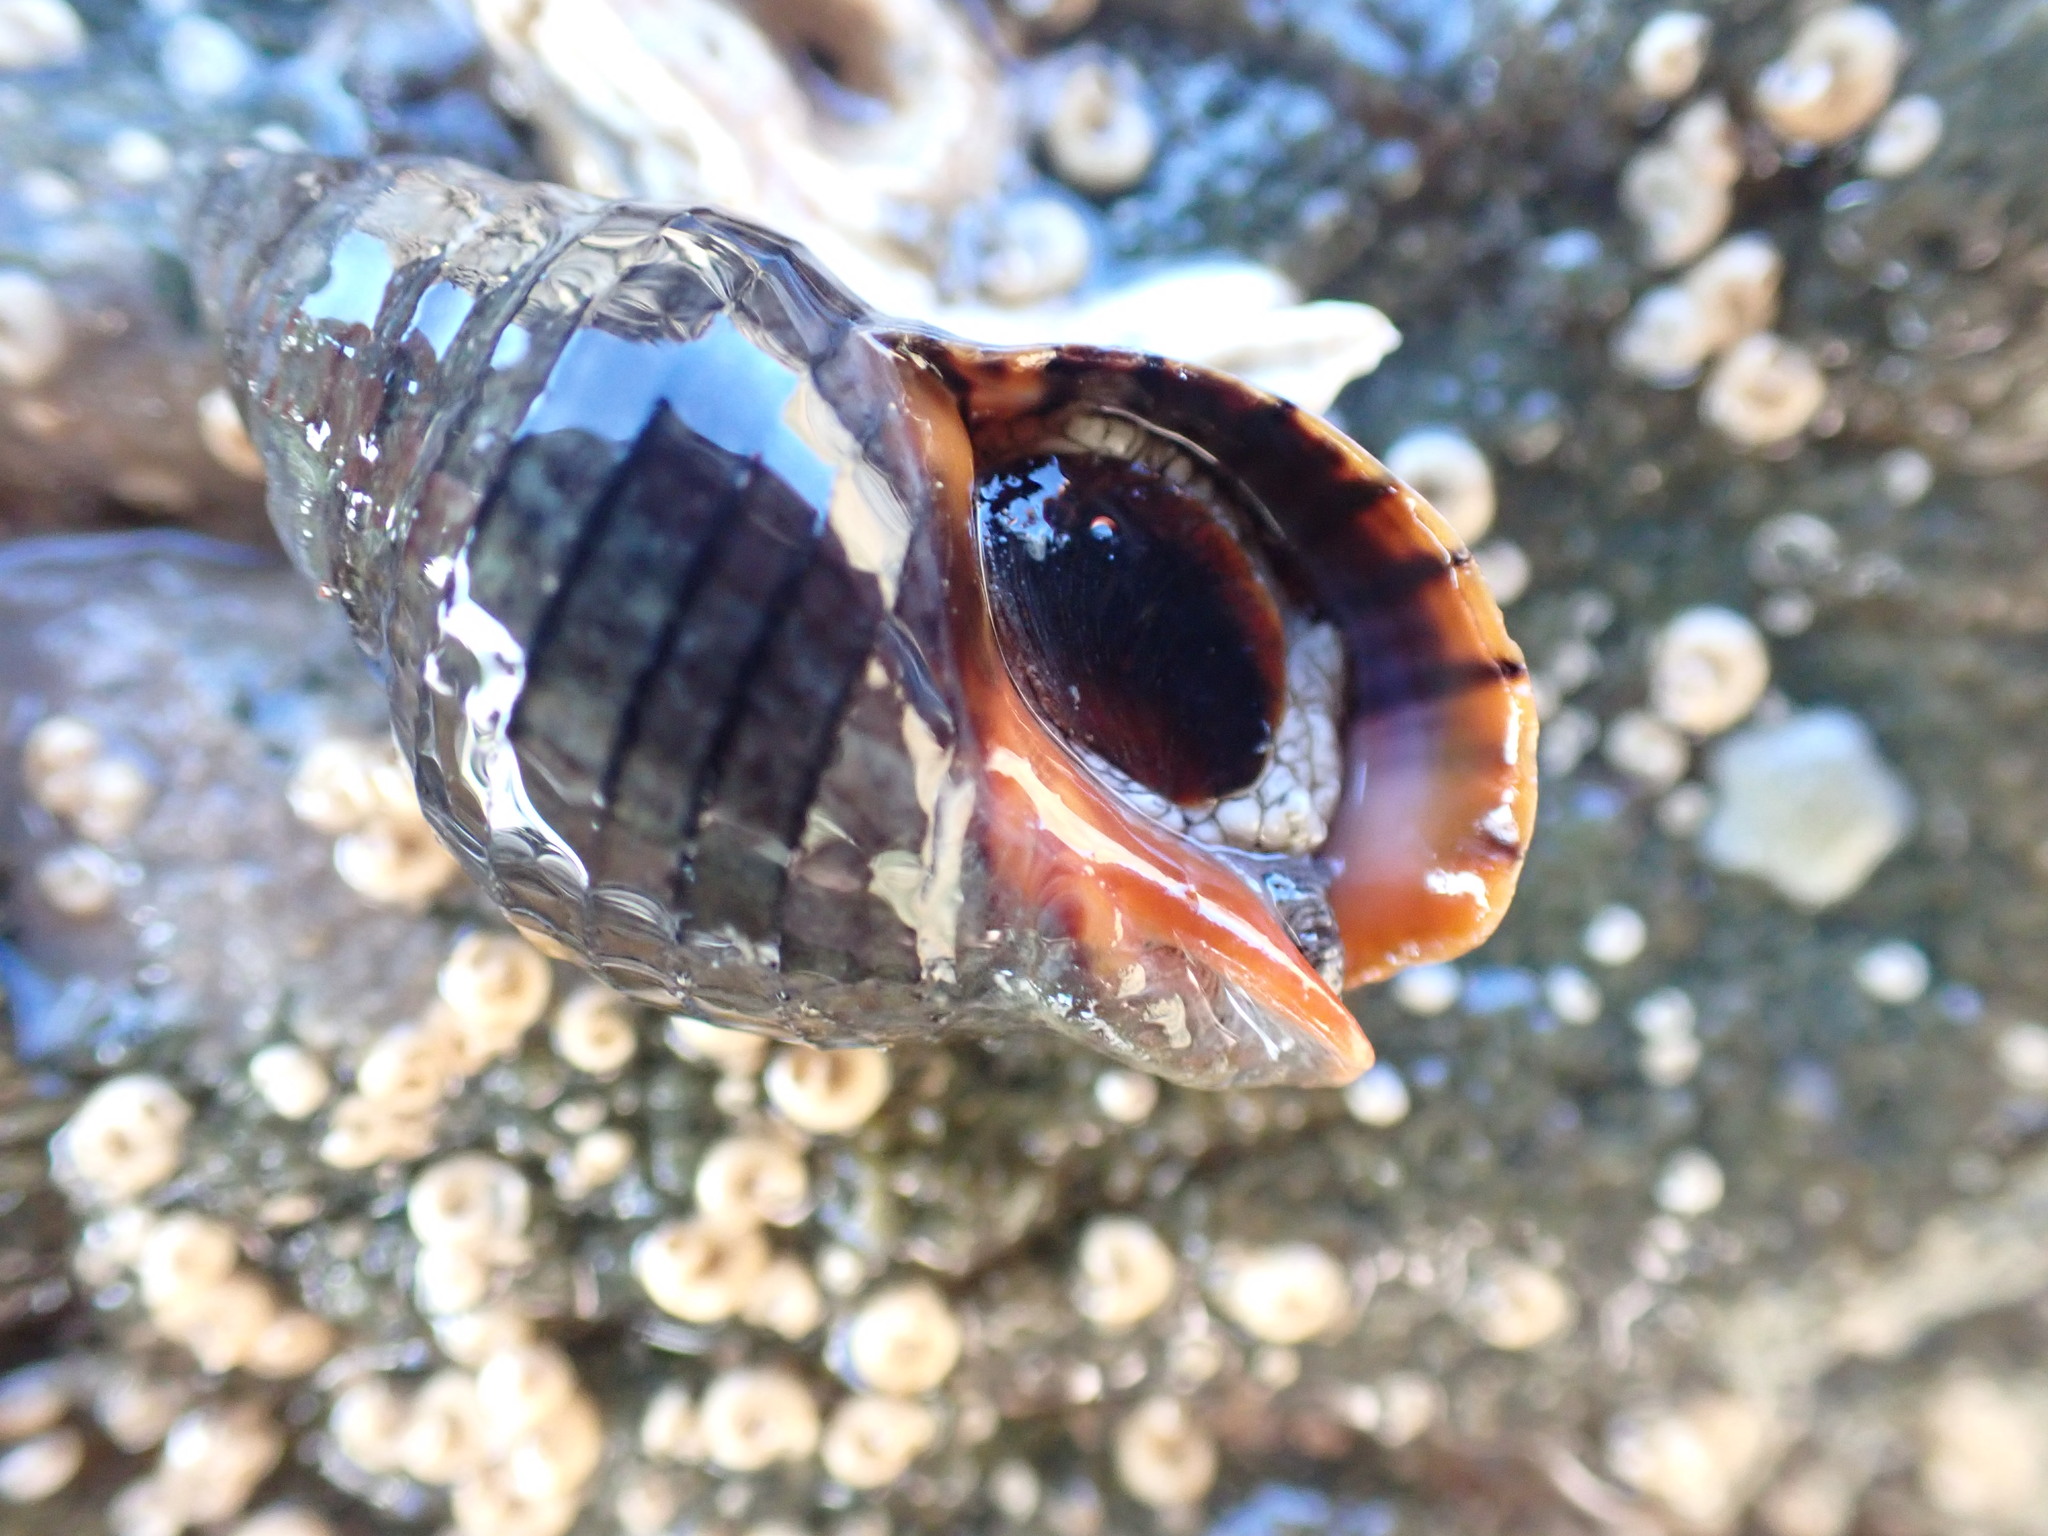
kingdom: Animalia
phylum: Mollusca
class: Gastropoda
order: Neogastropoda
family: Cominellidae
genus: Cominella
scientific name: Cominella virgata
